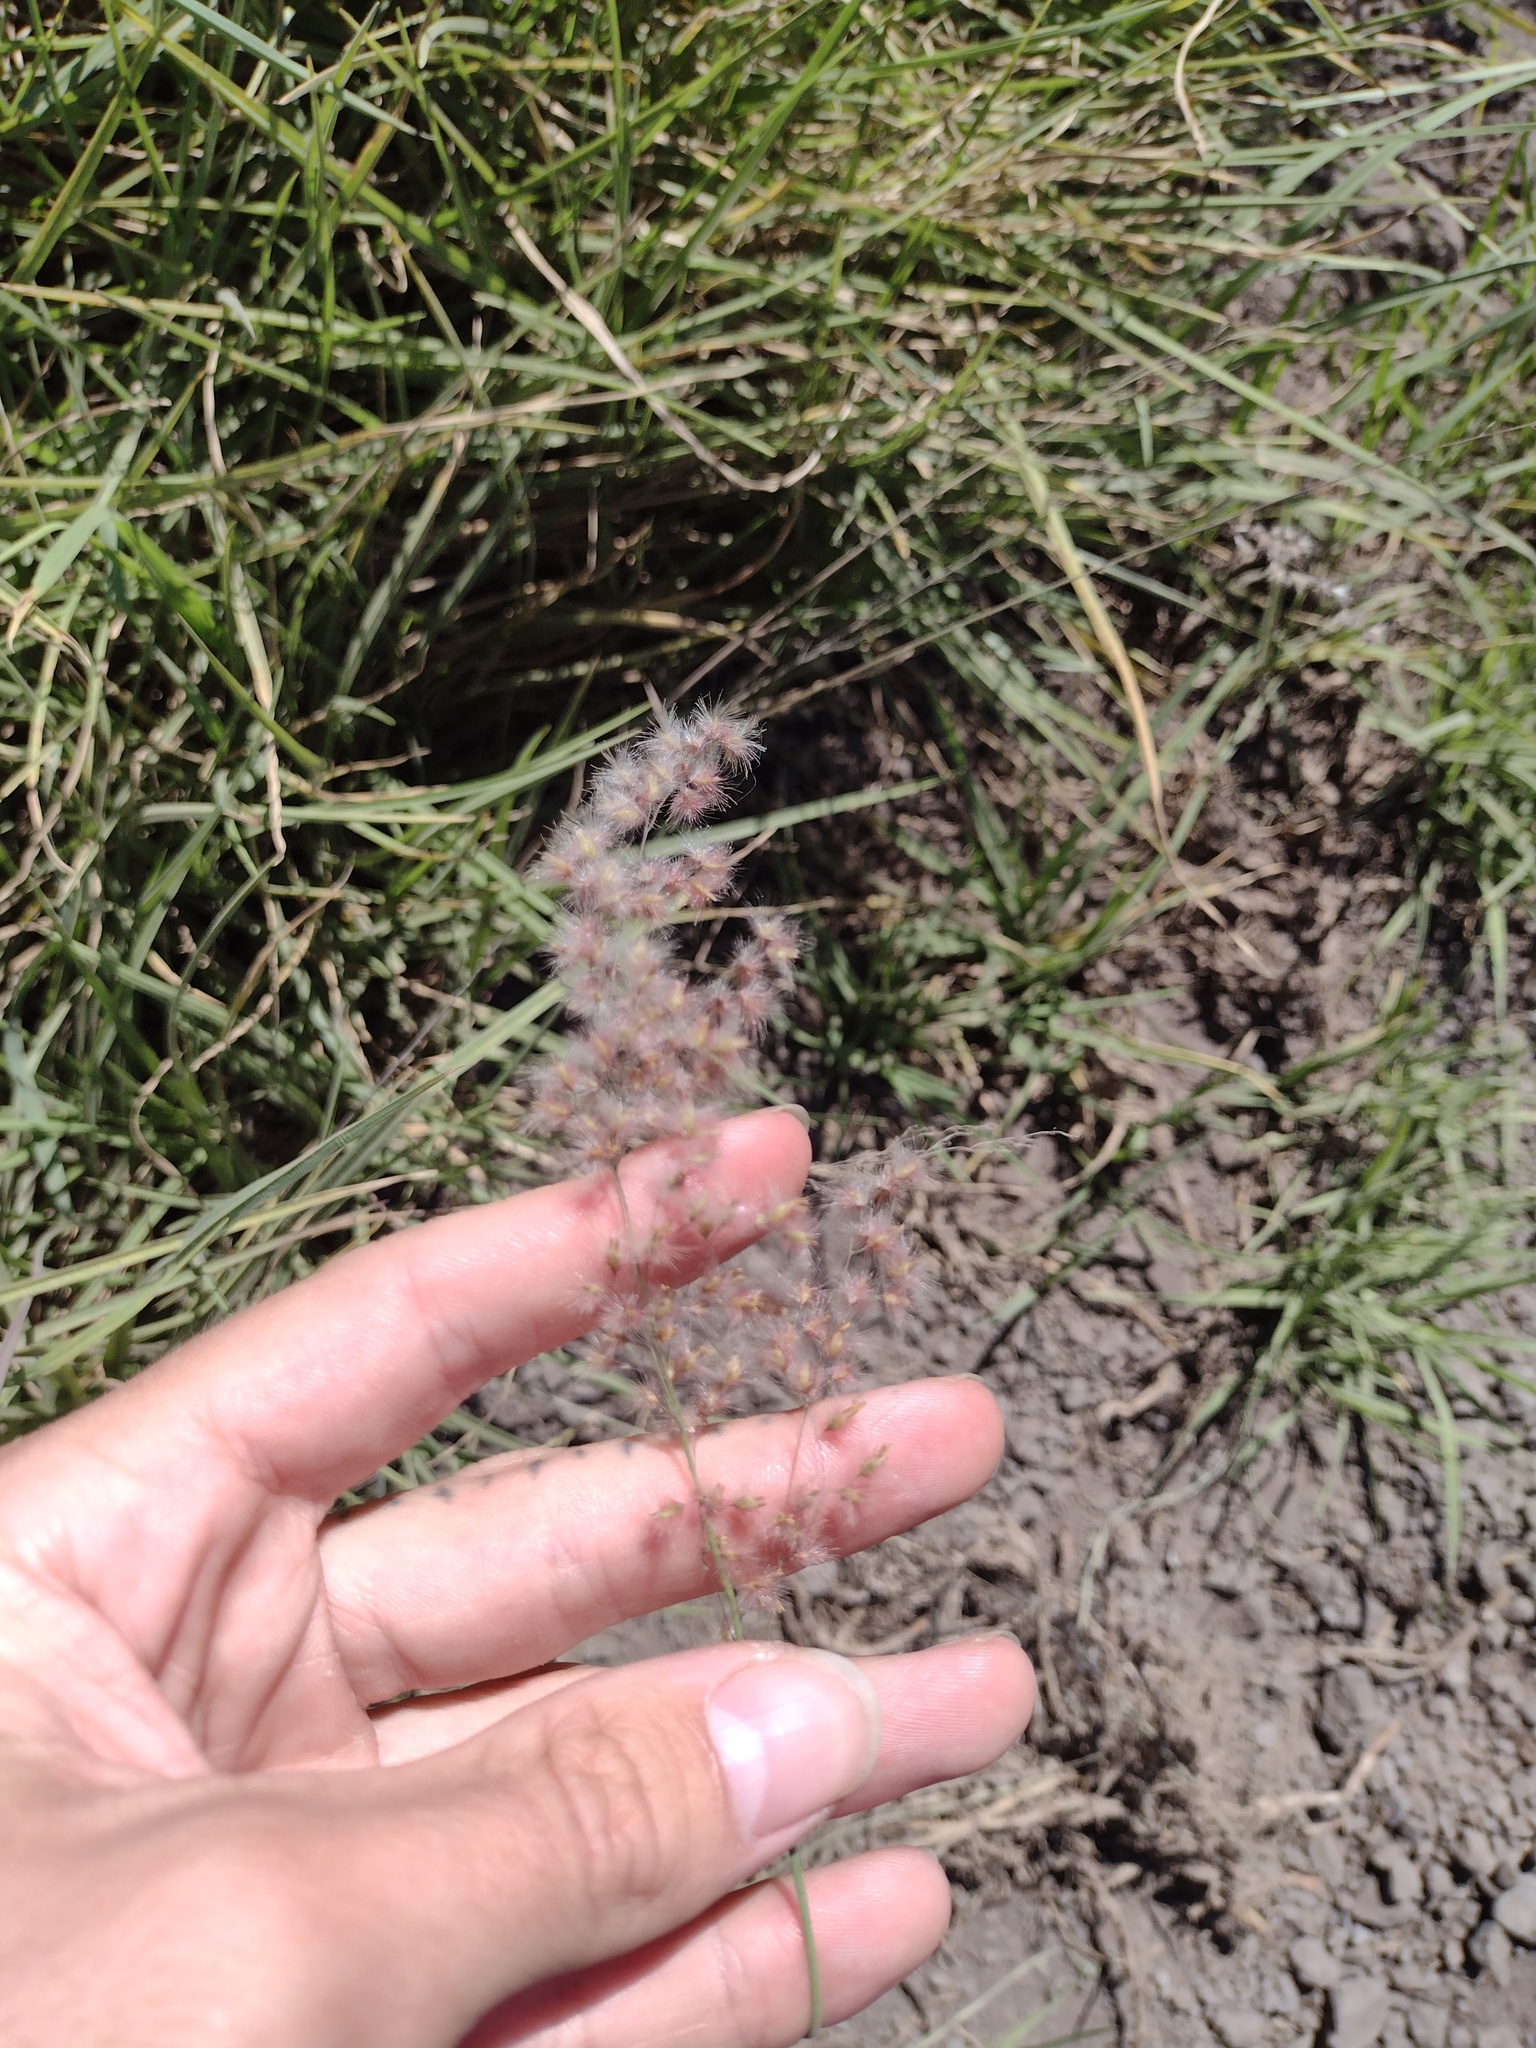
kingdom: Plantae
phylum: Tracheophyta
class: Liliopsida
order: Poales
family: Poaceae
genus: Melinis
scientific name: Melinis repens
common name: Rose natal grass
